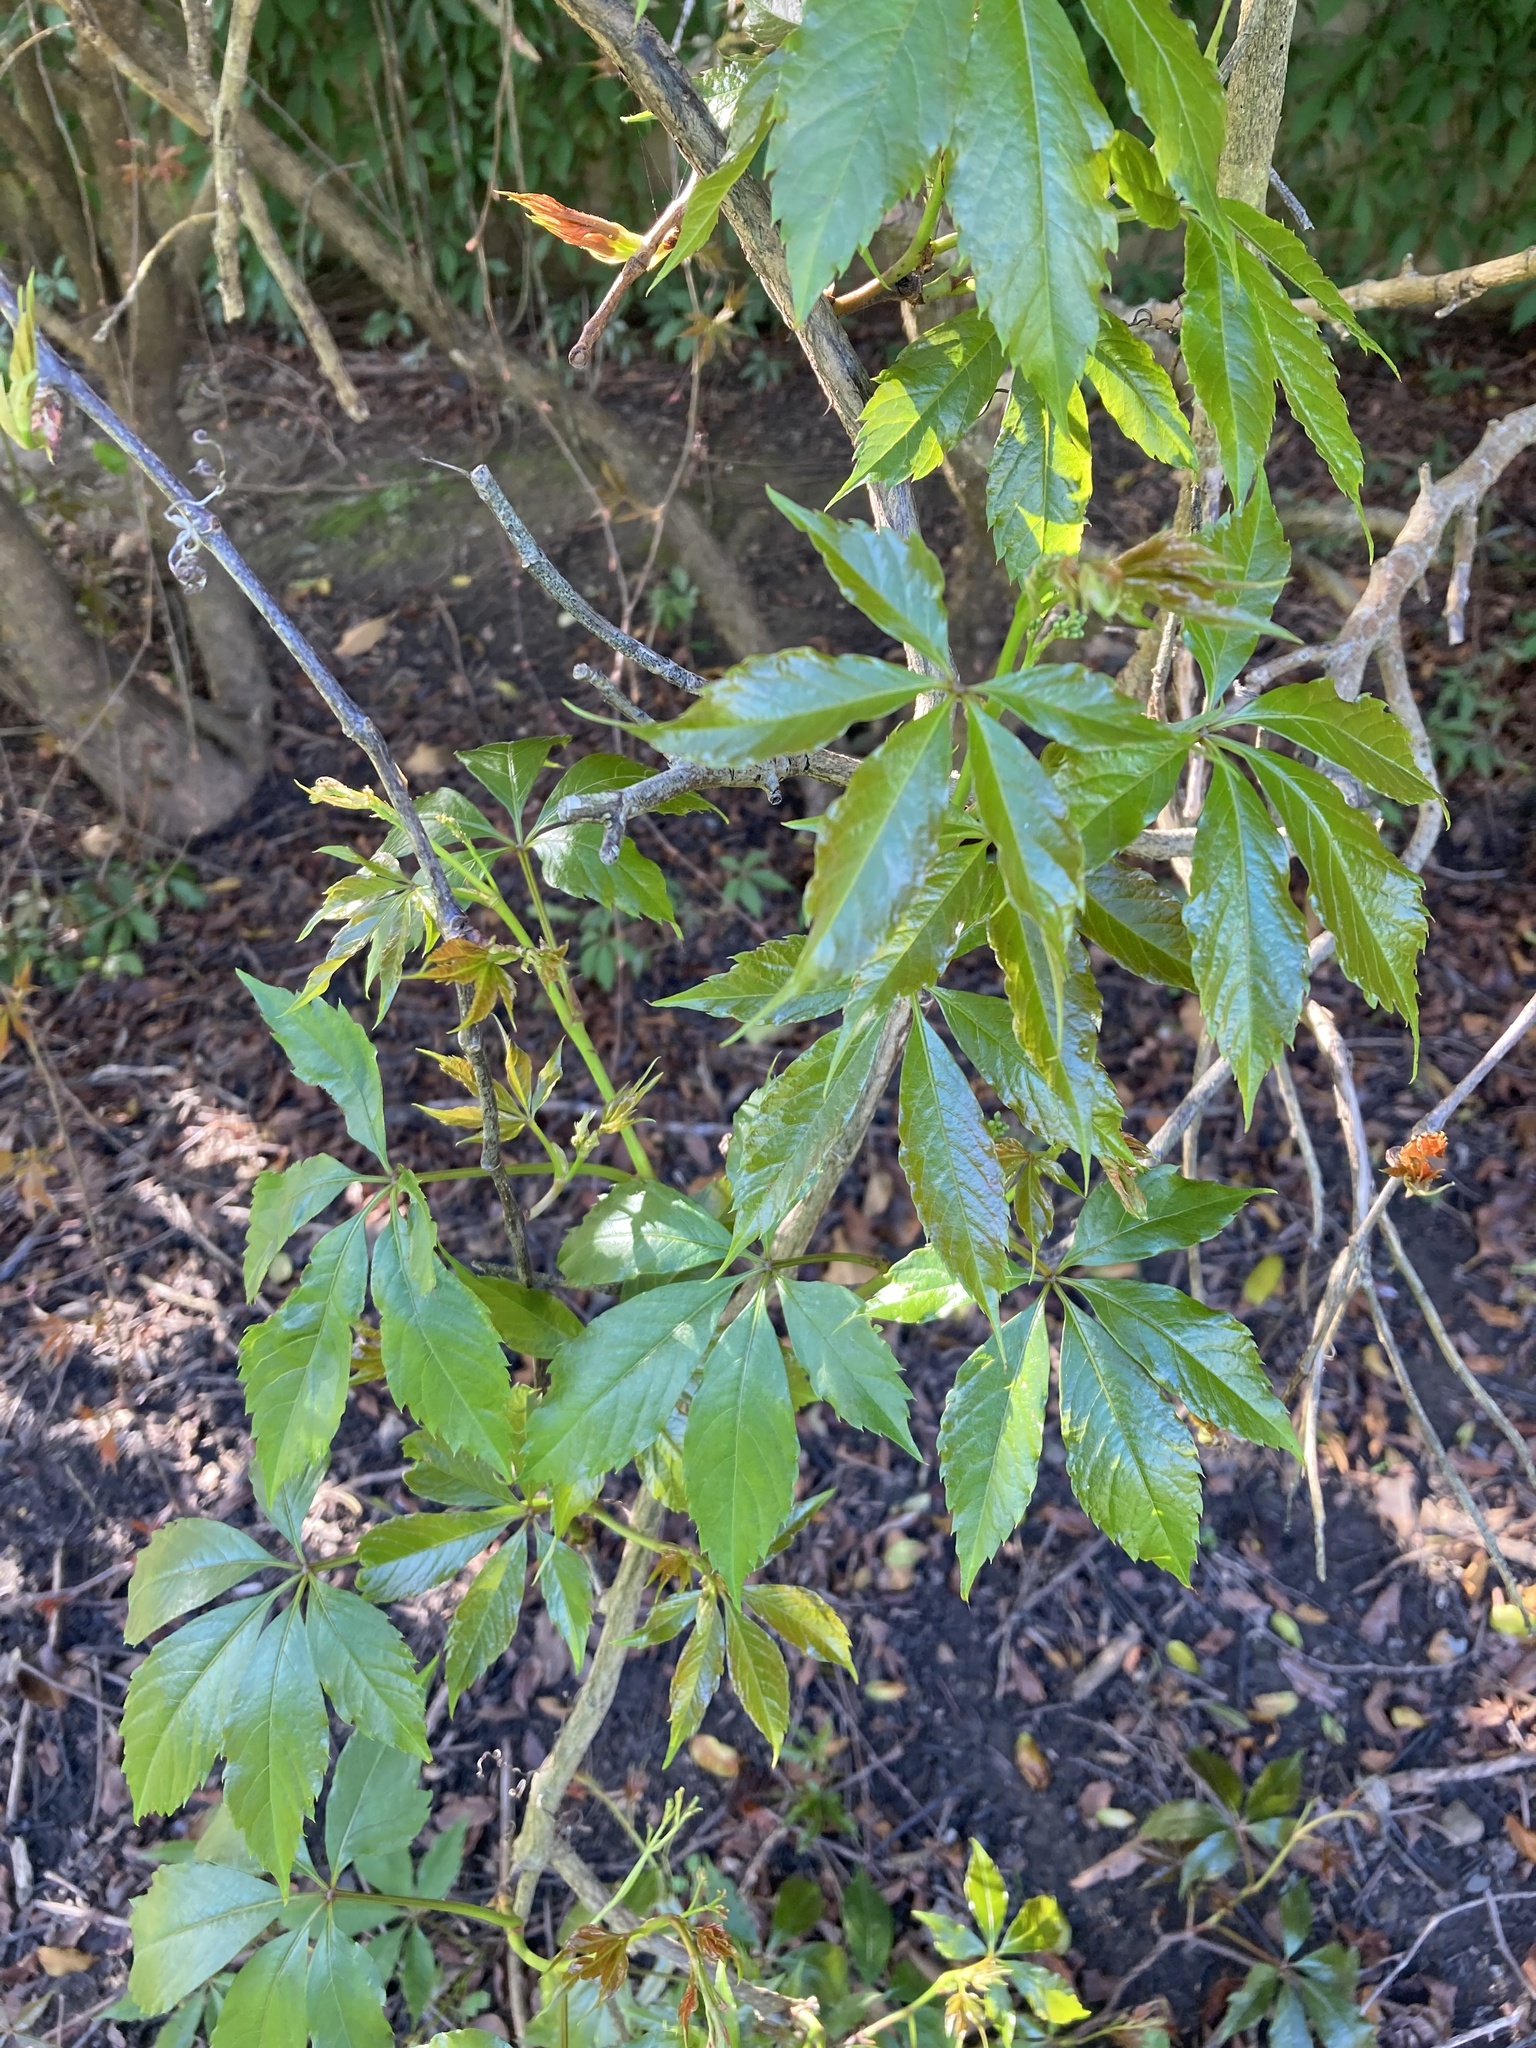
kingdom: Plantae
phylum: Tracheophyta
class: Magnoliopsida
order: Vitales
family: Vitaceae
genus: Parthenocissus
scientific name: Parthenocissus quinquefolia
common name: Virginia-creeper
